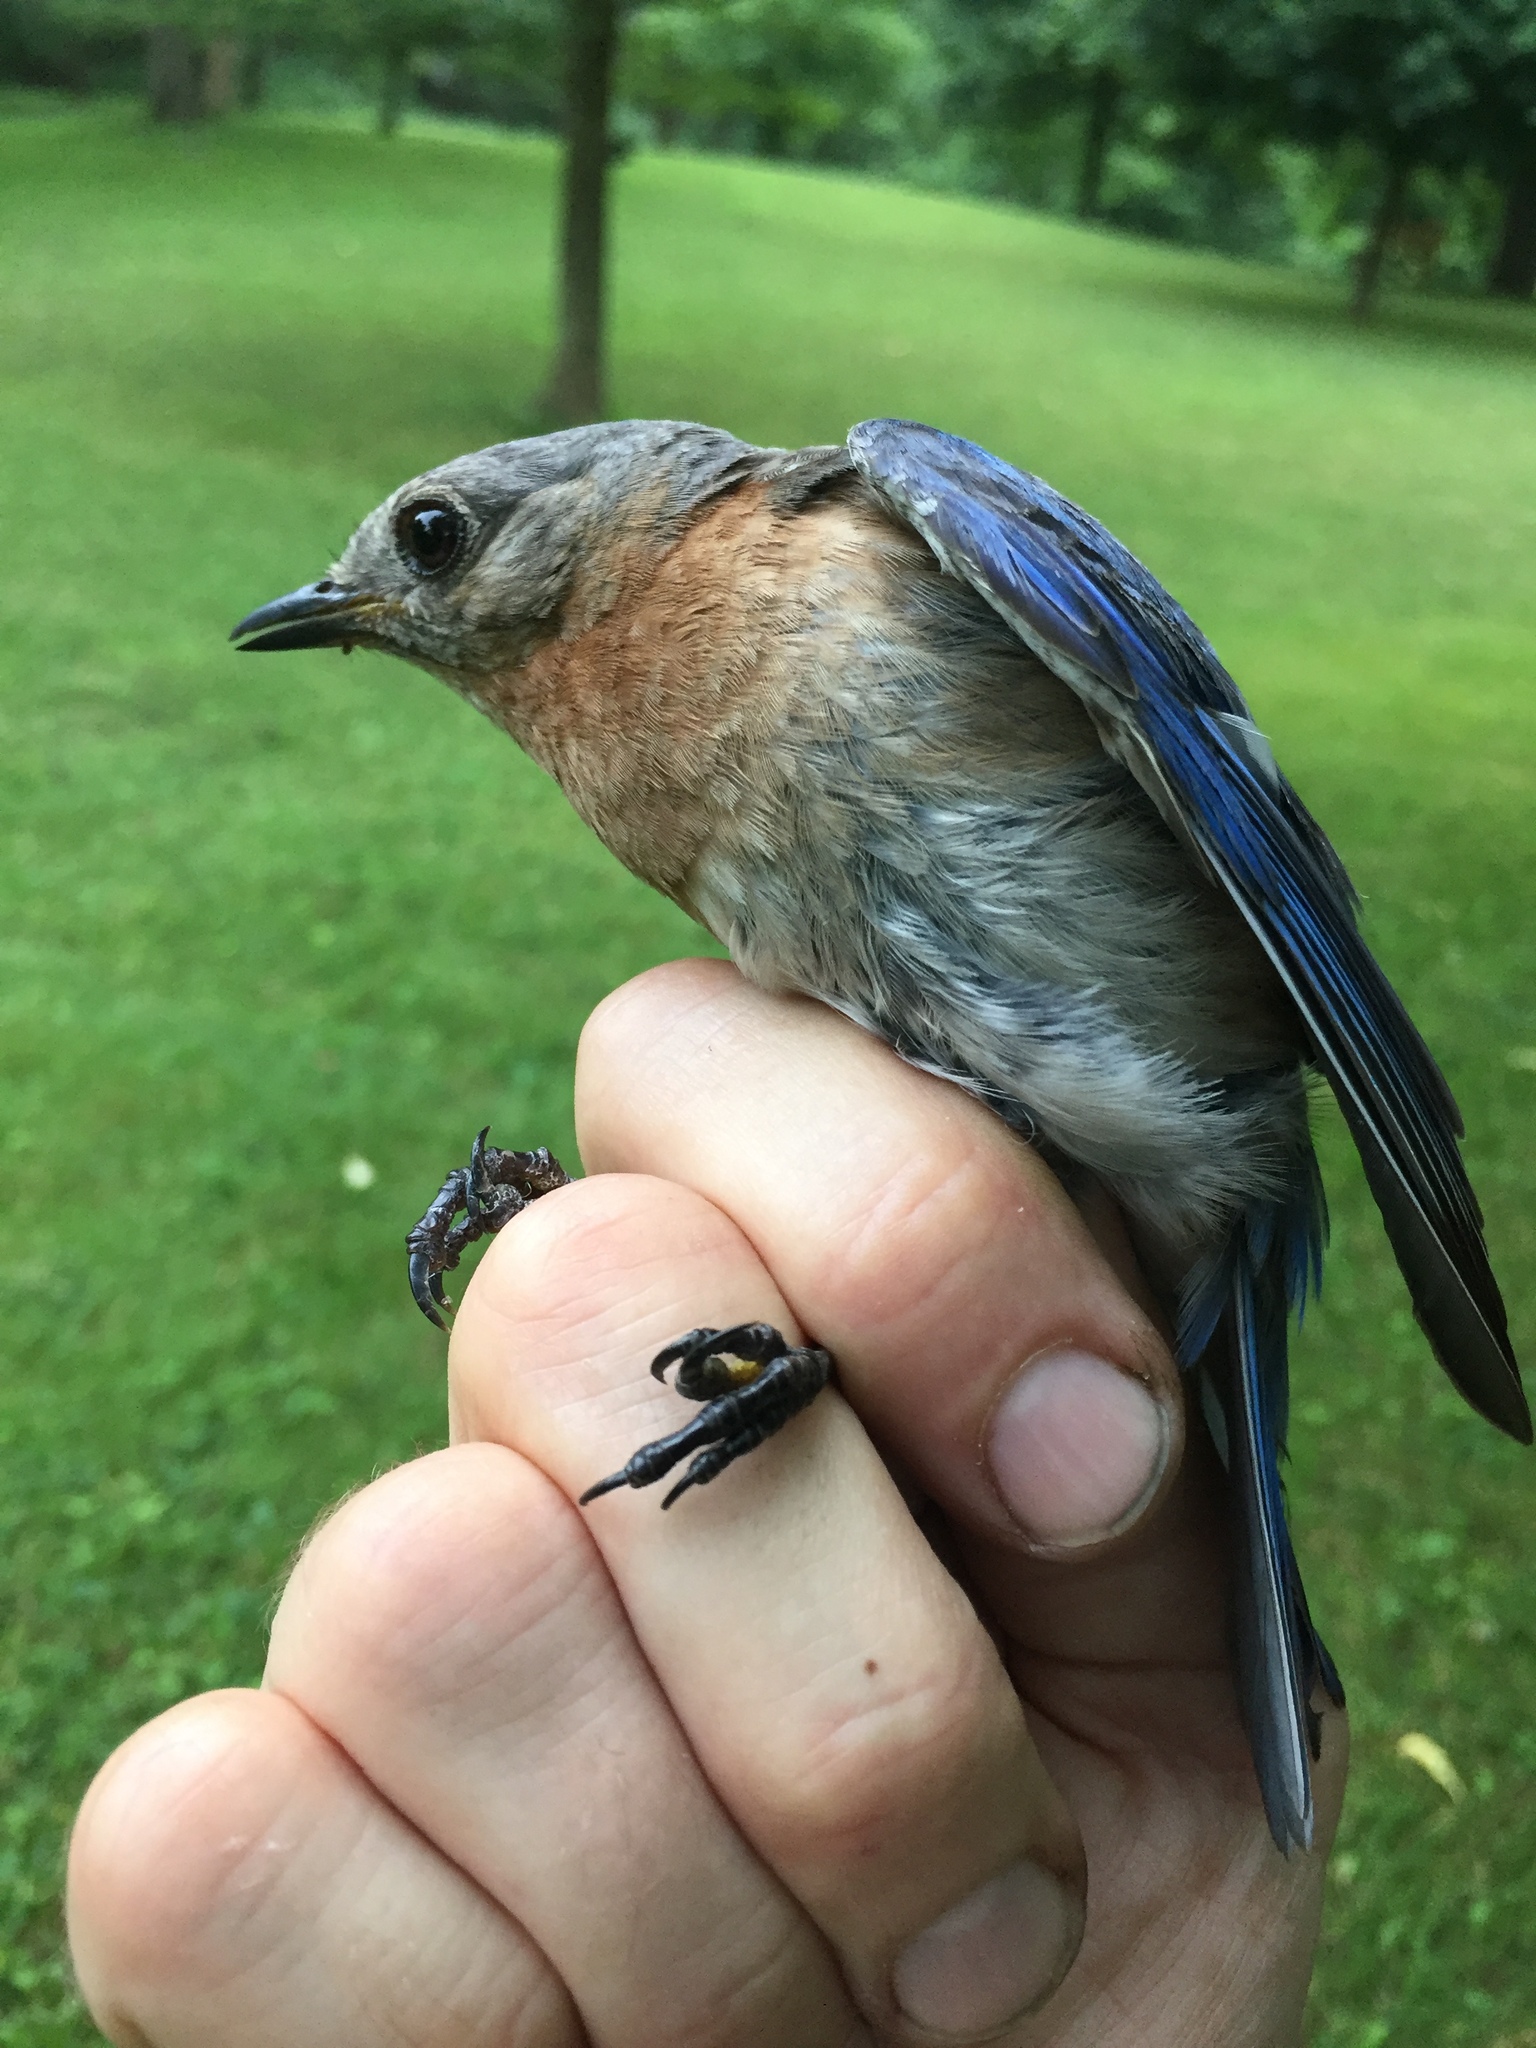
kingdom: Animalia
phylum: Chordata
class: Aves
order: Passeriformes
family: Turdidae
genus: Sialia
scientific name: Sialia sialis
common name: Eastern bluebird
